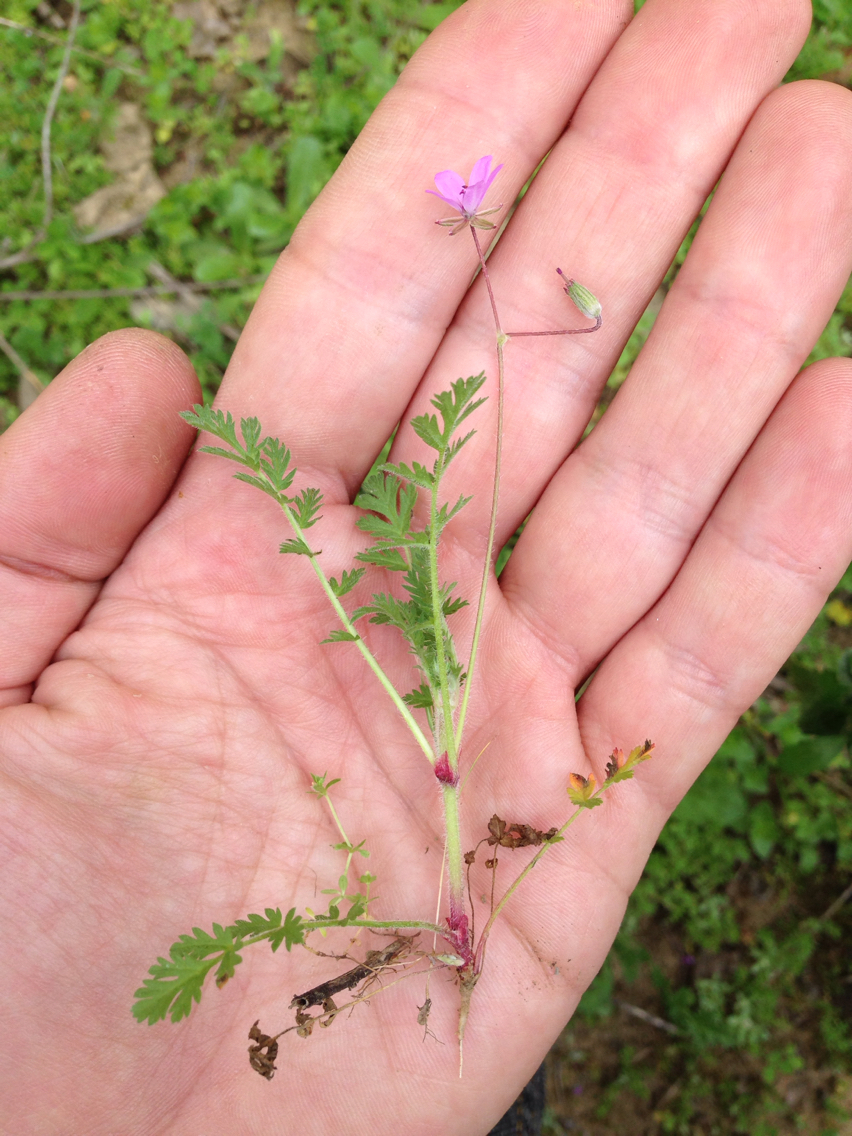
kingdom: Plantae
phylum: Tracheophyta
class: Magnoliopsida
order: Geraniales
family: Geraniaceae
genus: Erodium
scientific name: Erodium cicutarium
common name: Common stork's-bill
